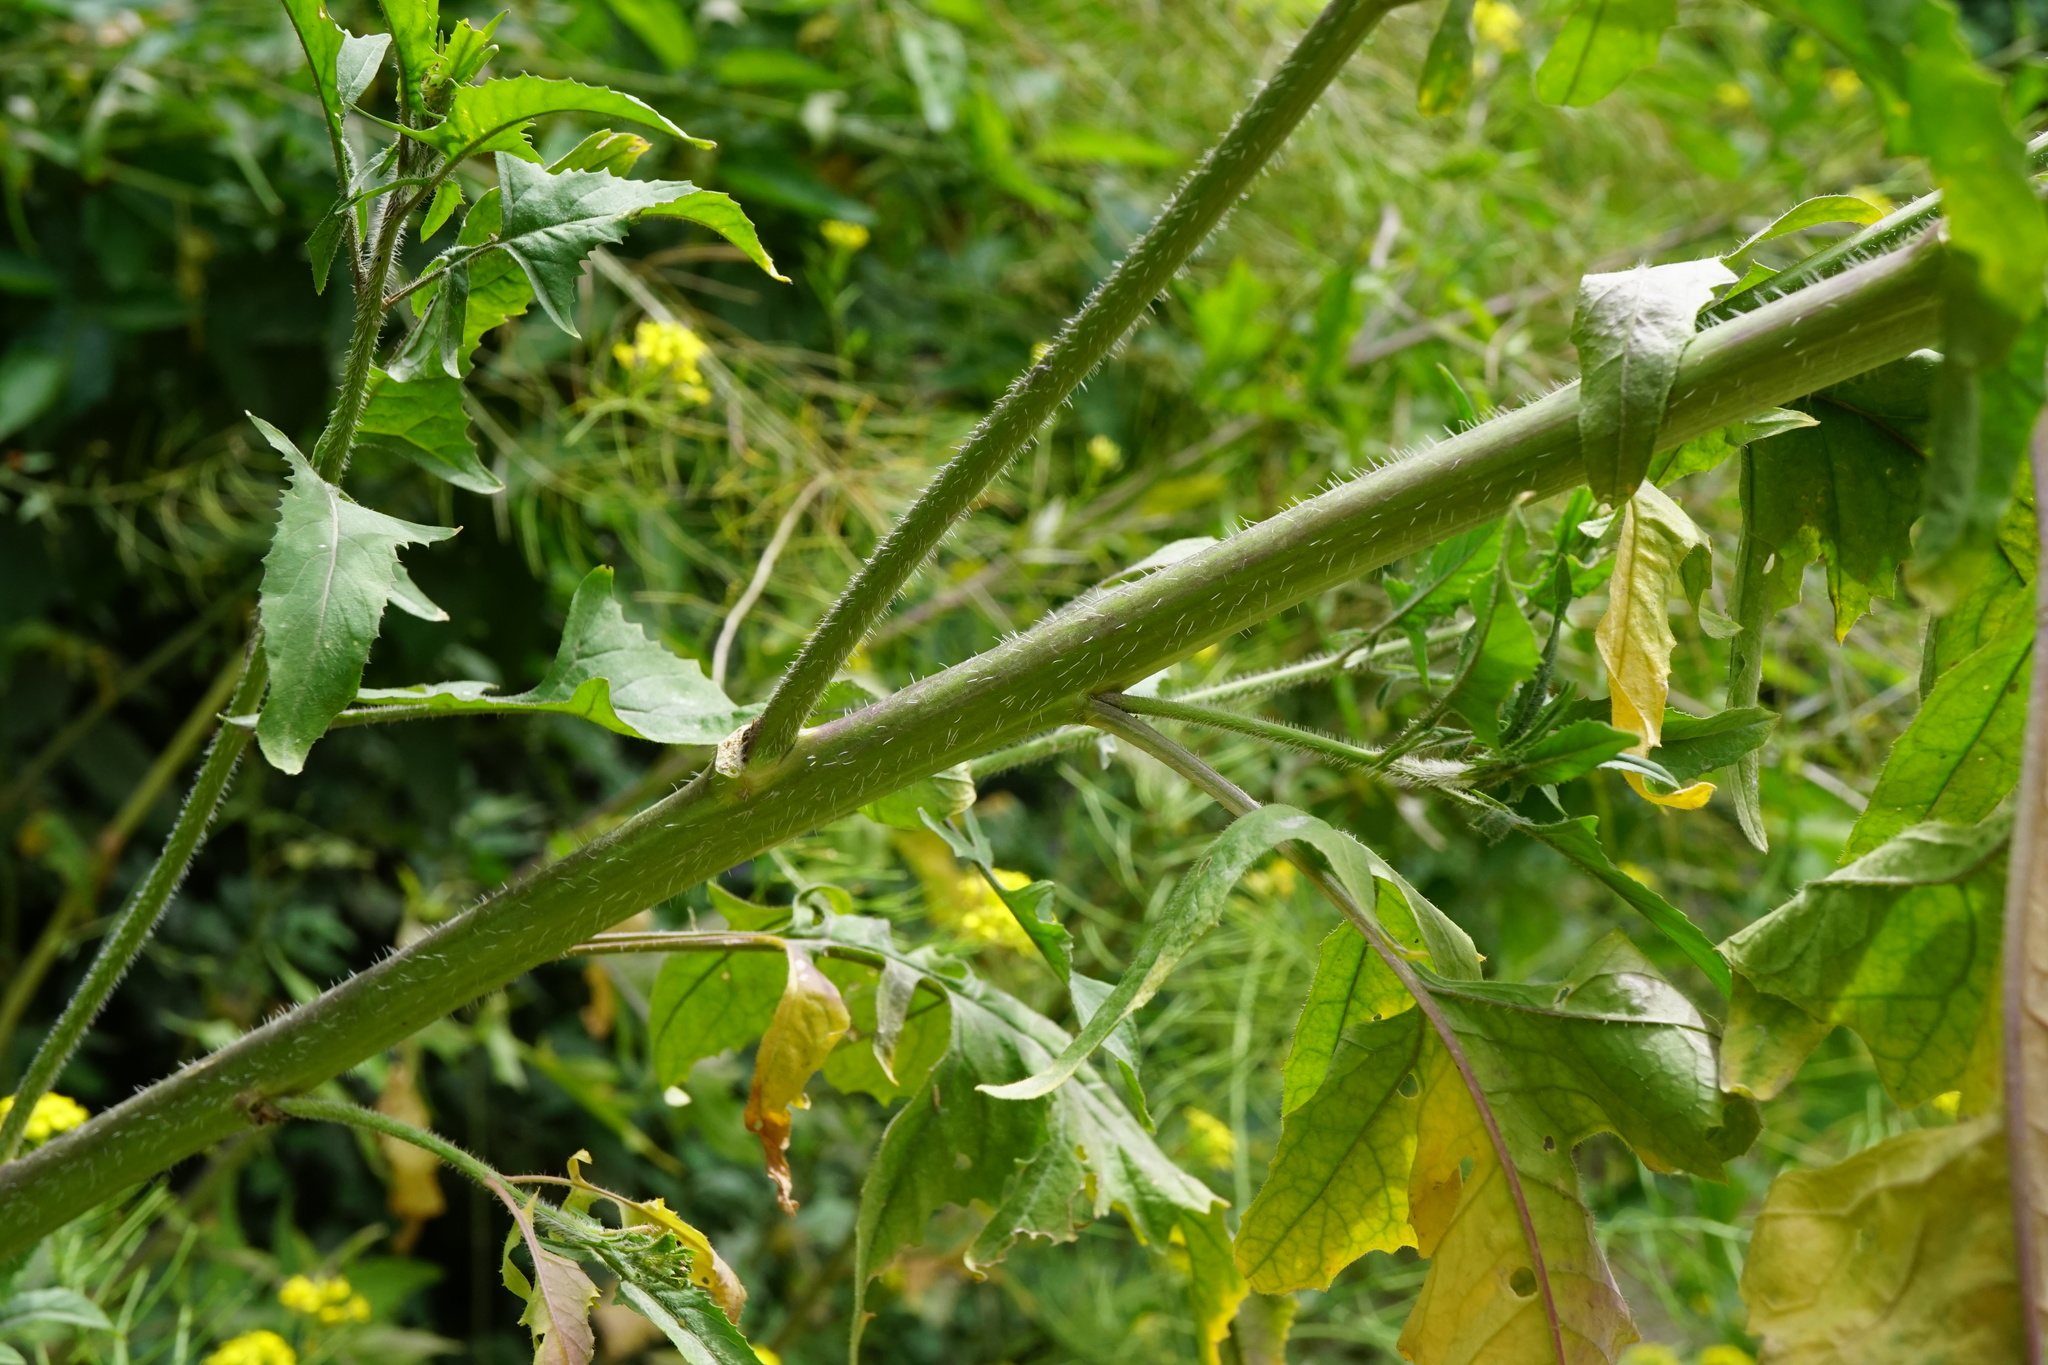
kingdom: Plantae
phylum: Tracheophyta
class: Magnoliopsida
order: Brassicales
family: Brassicaceae
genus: Sisymbrium
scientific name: Sisymbrium loeselii
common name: False london-rocket
